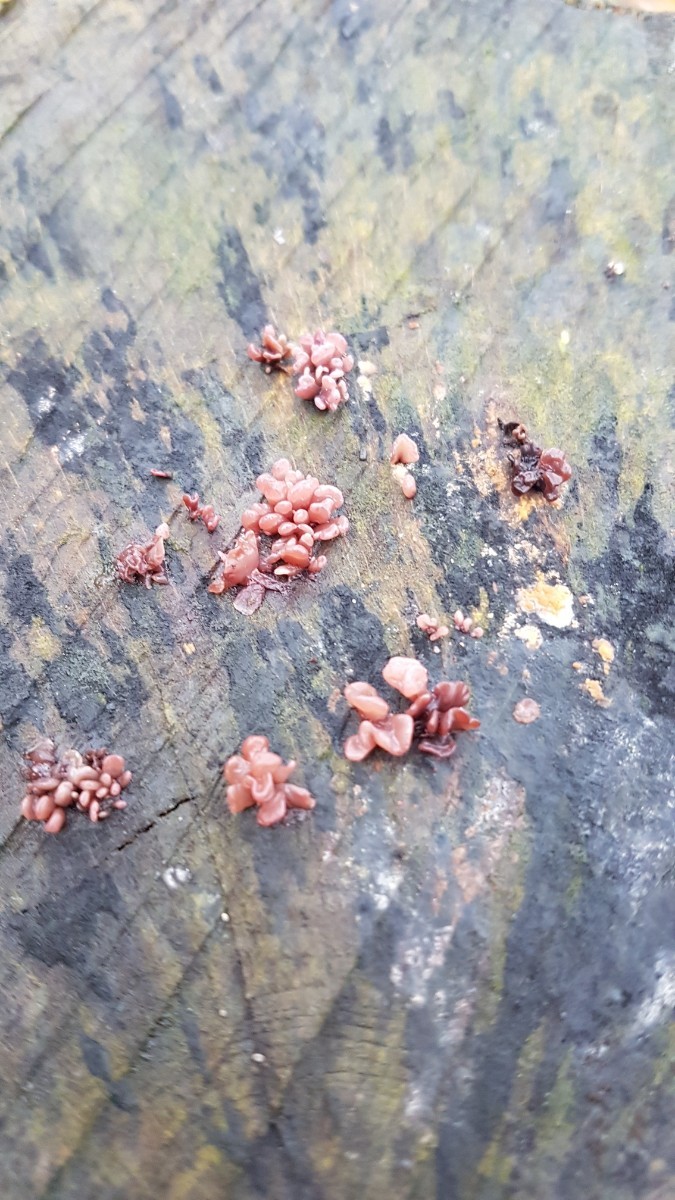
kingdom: Fungi
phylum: Ascomycota
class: Leotiomycetes
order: Helotiales
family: Gelatinodiscaceae
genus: Ascocoryne
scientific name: Ascocoryne sarcoides
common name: Purple jellydisc
